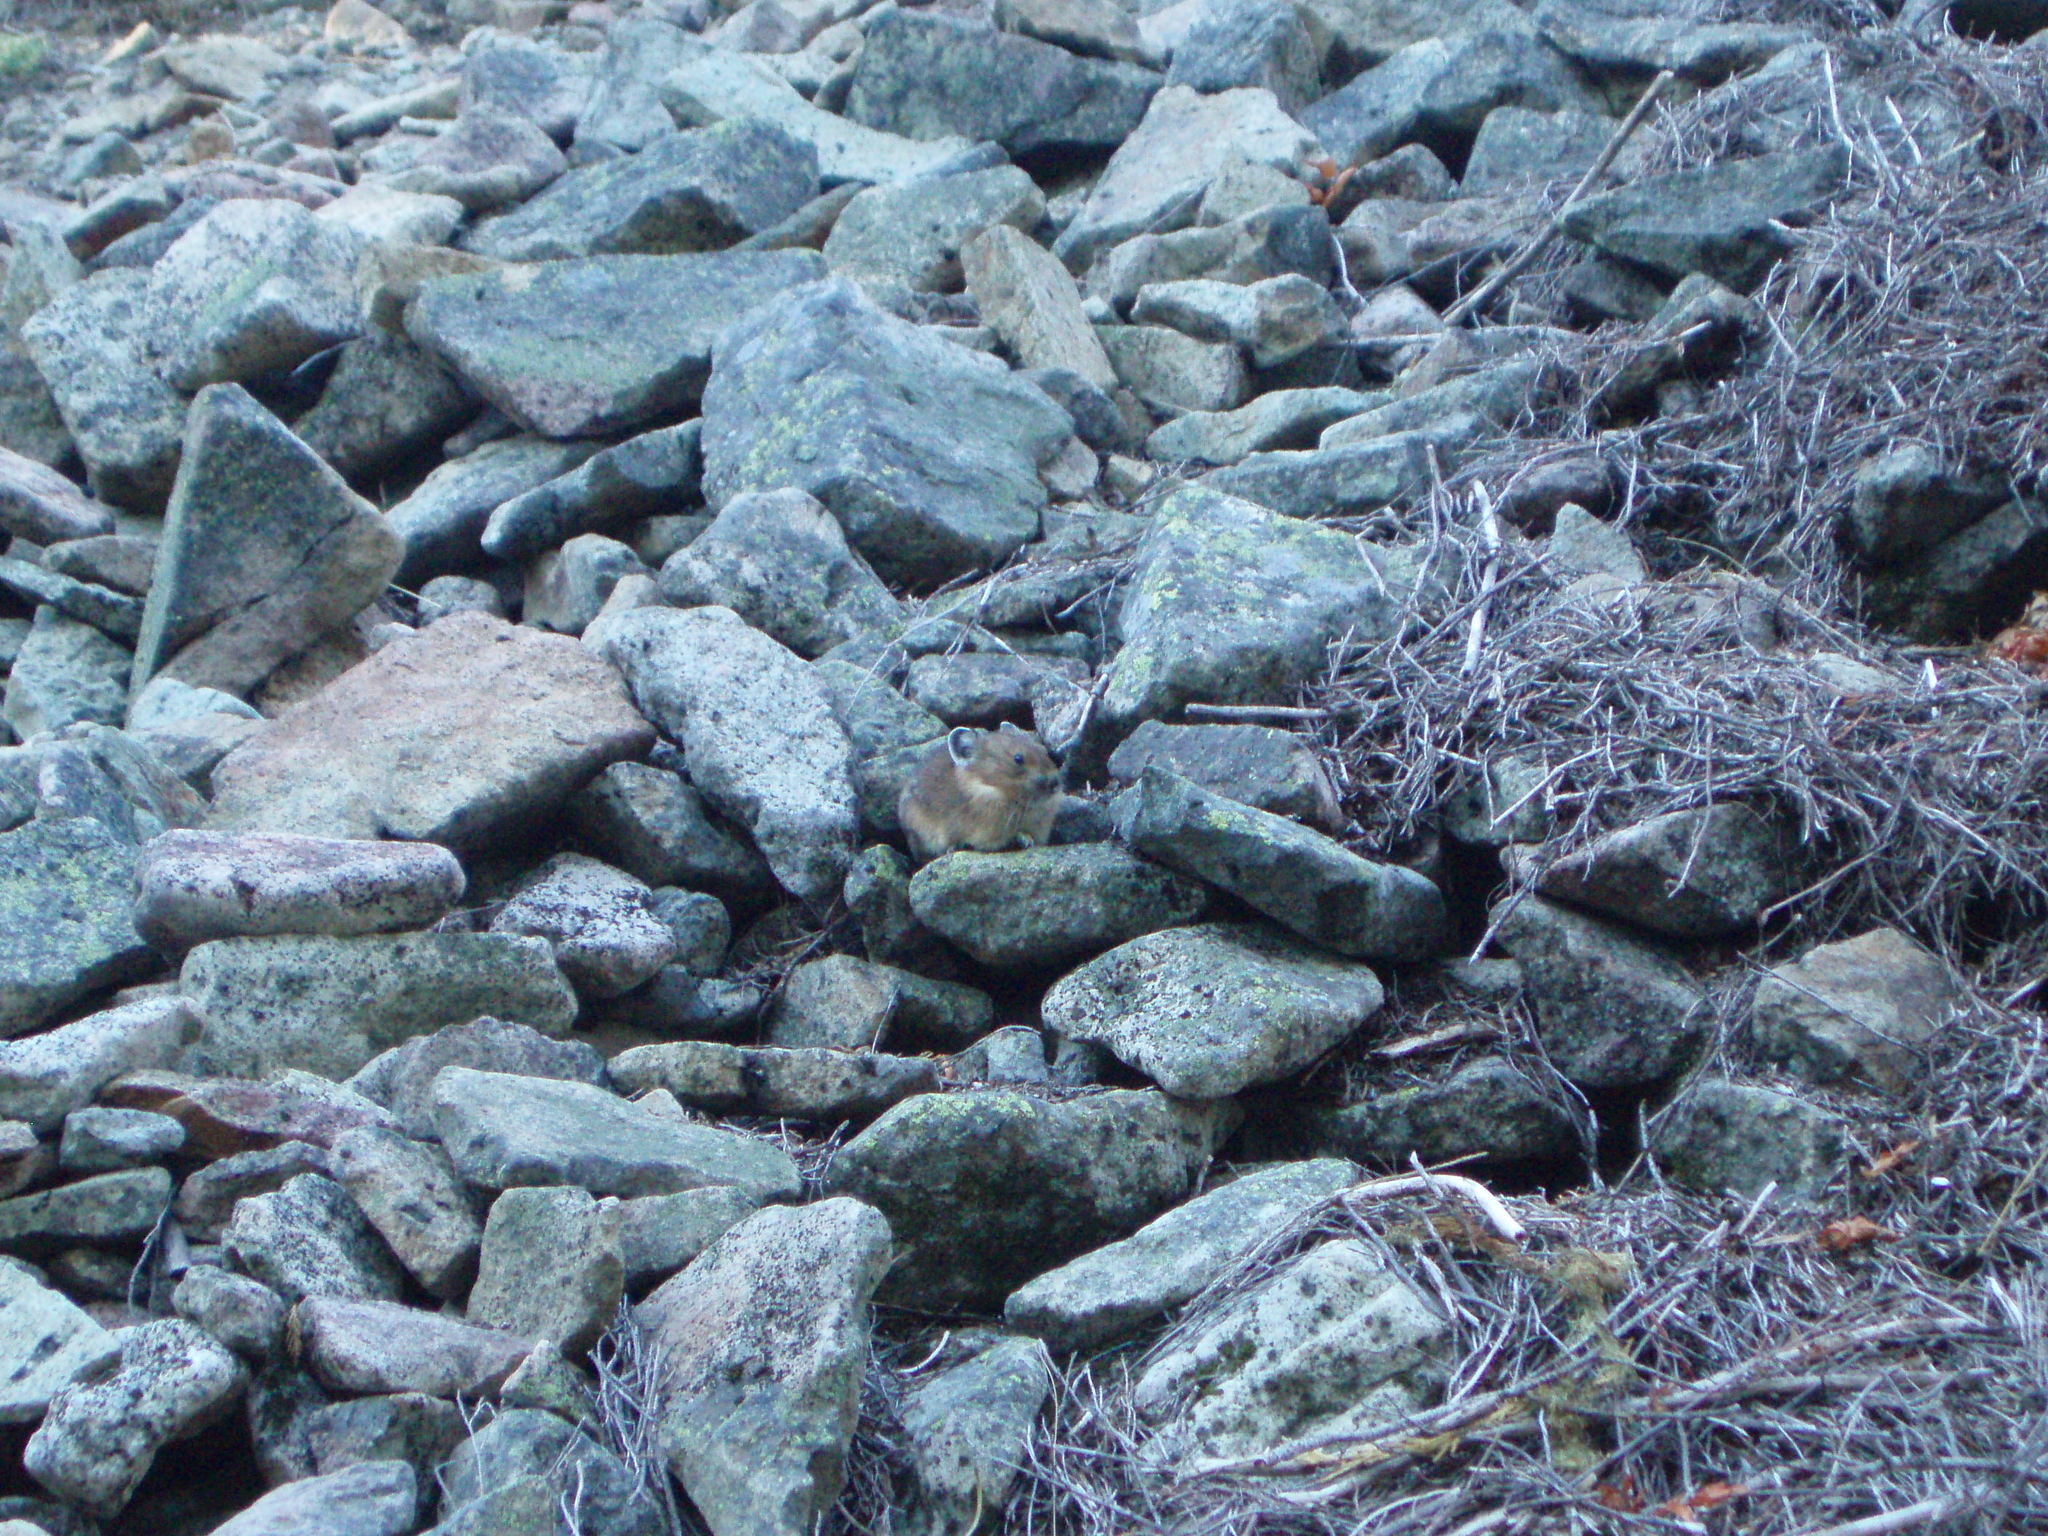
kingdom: Animalia
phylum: Chordata
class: Mammalia
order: Lagomorpha
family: Ochotonidae
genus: Ochotona
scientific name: Ochotona princeps
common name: American pika
